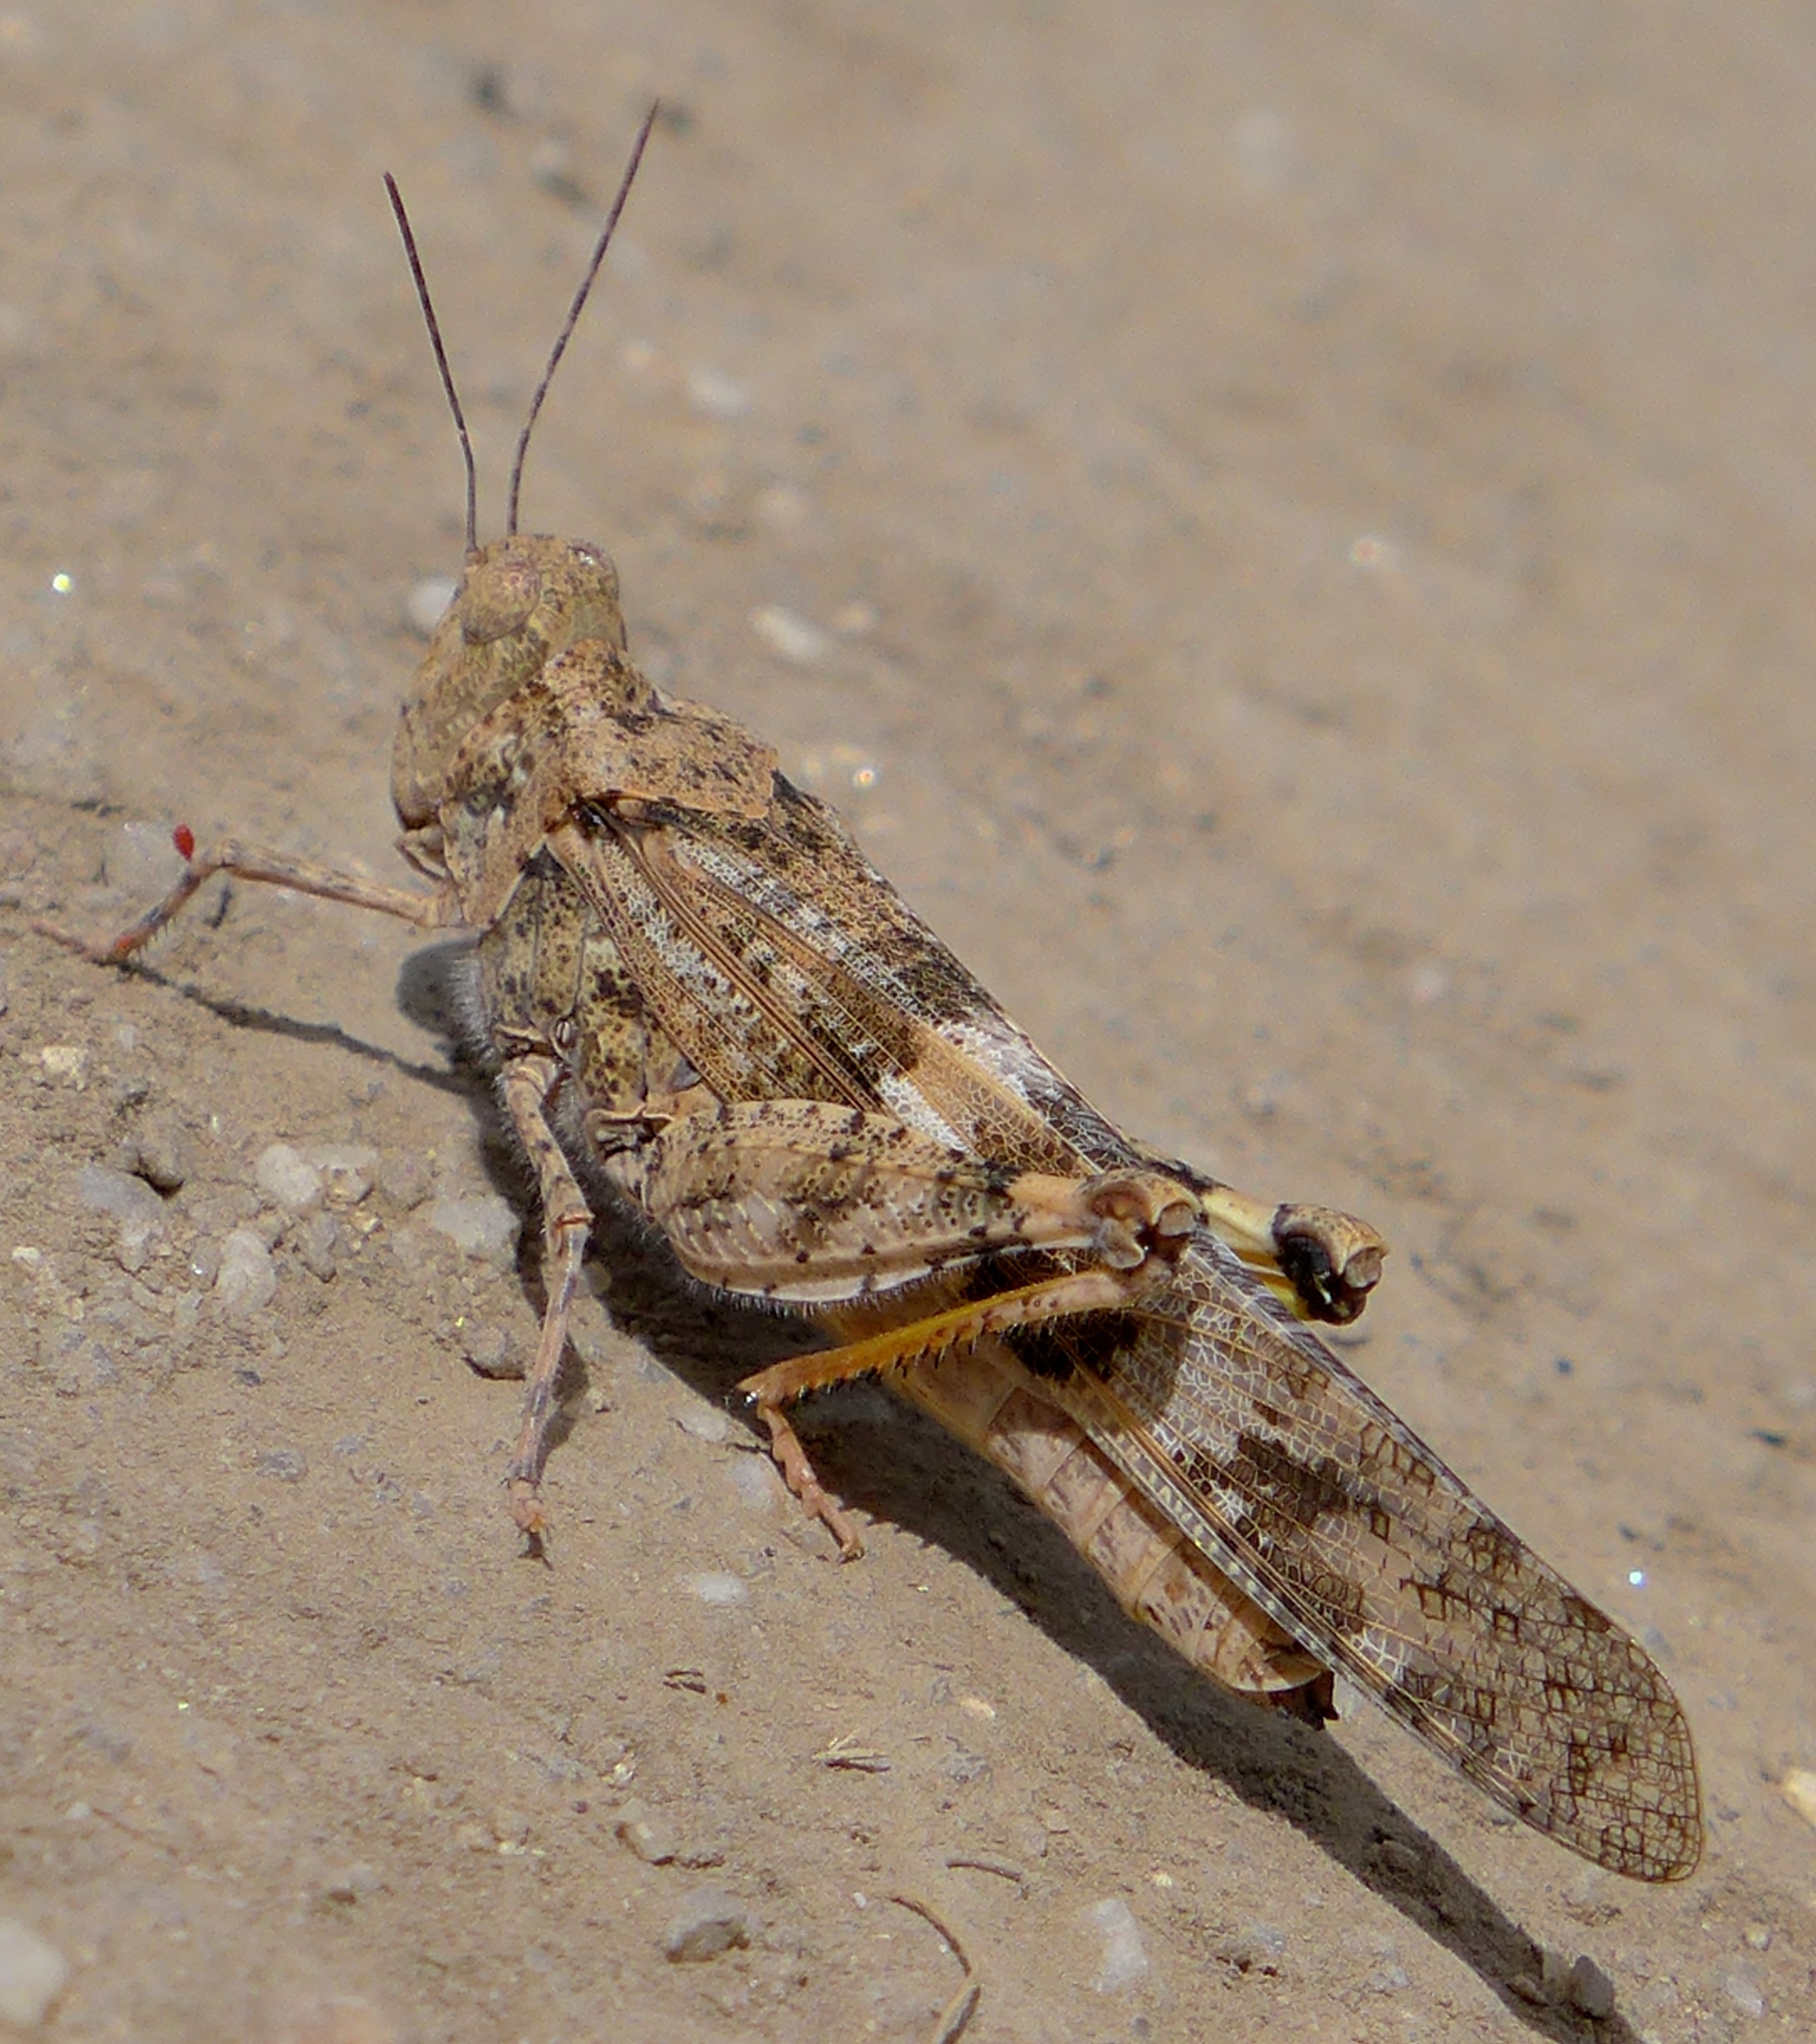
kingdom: Animalia
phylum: Arthropoda
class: Insecta
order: Orthoptera
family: Acrididae
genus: Trimerotropis
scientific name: Trimerotropis pallidipennis
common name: Pallid-winged grasshopper
